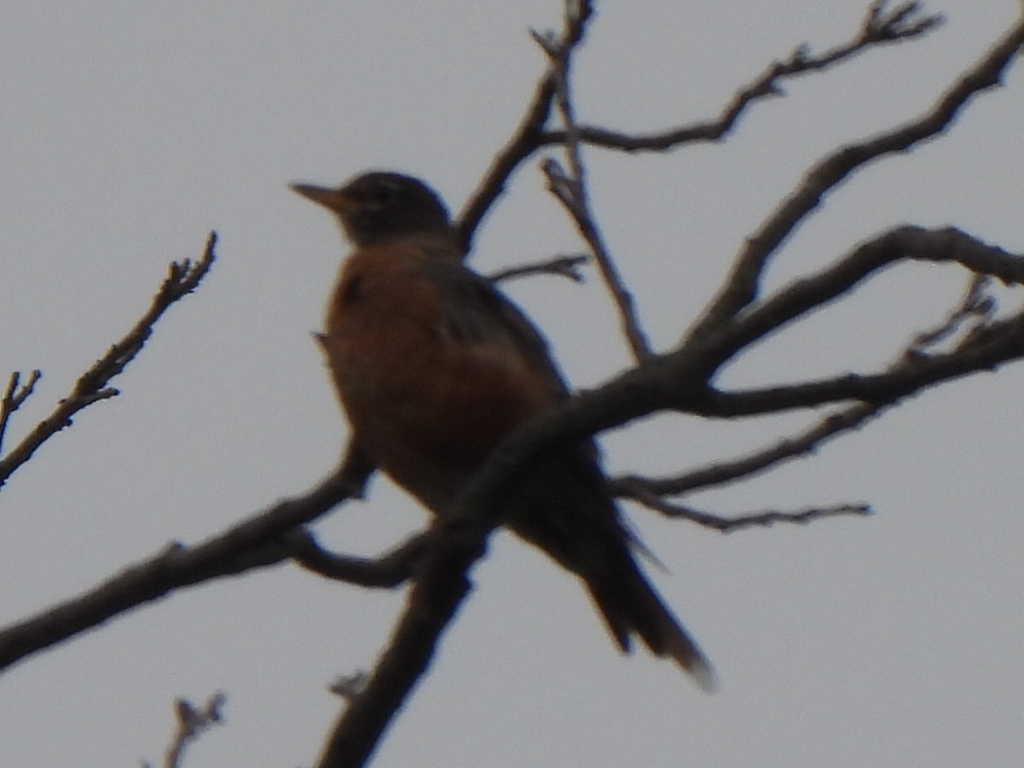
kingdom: Animalia
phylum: Chordata
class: Aves
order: Passeriformes
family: Turdidae
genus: Turdus
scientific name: Turdus migratorius
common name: American robin
